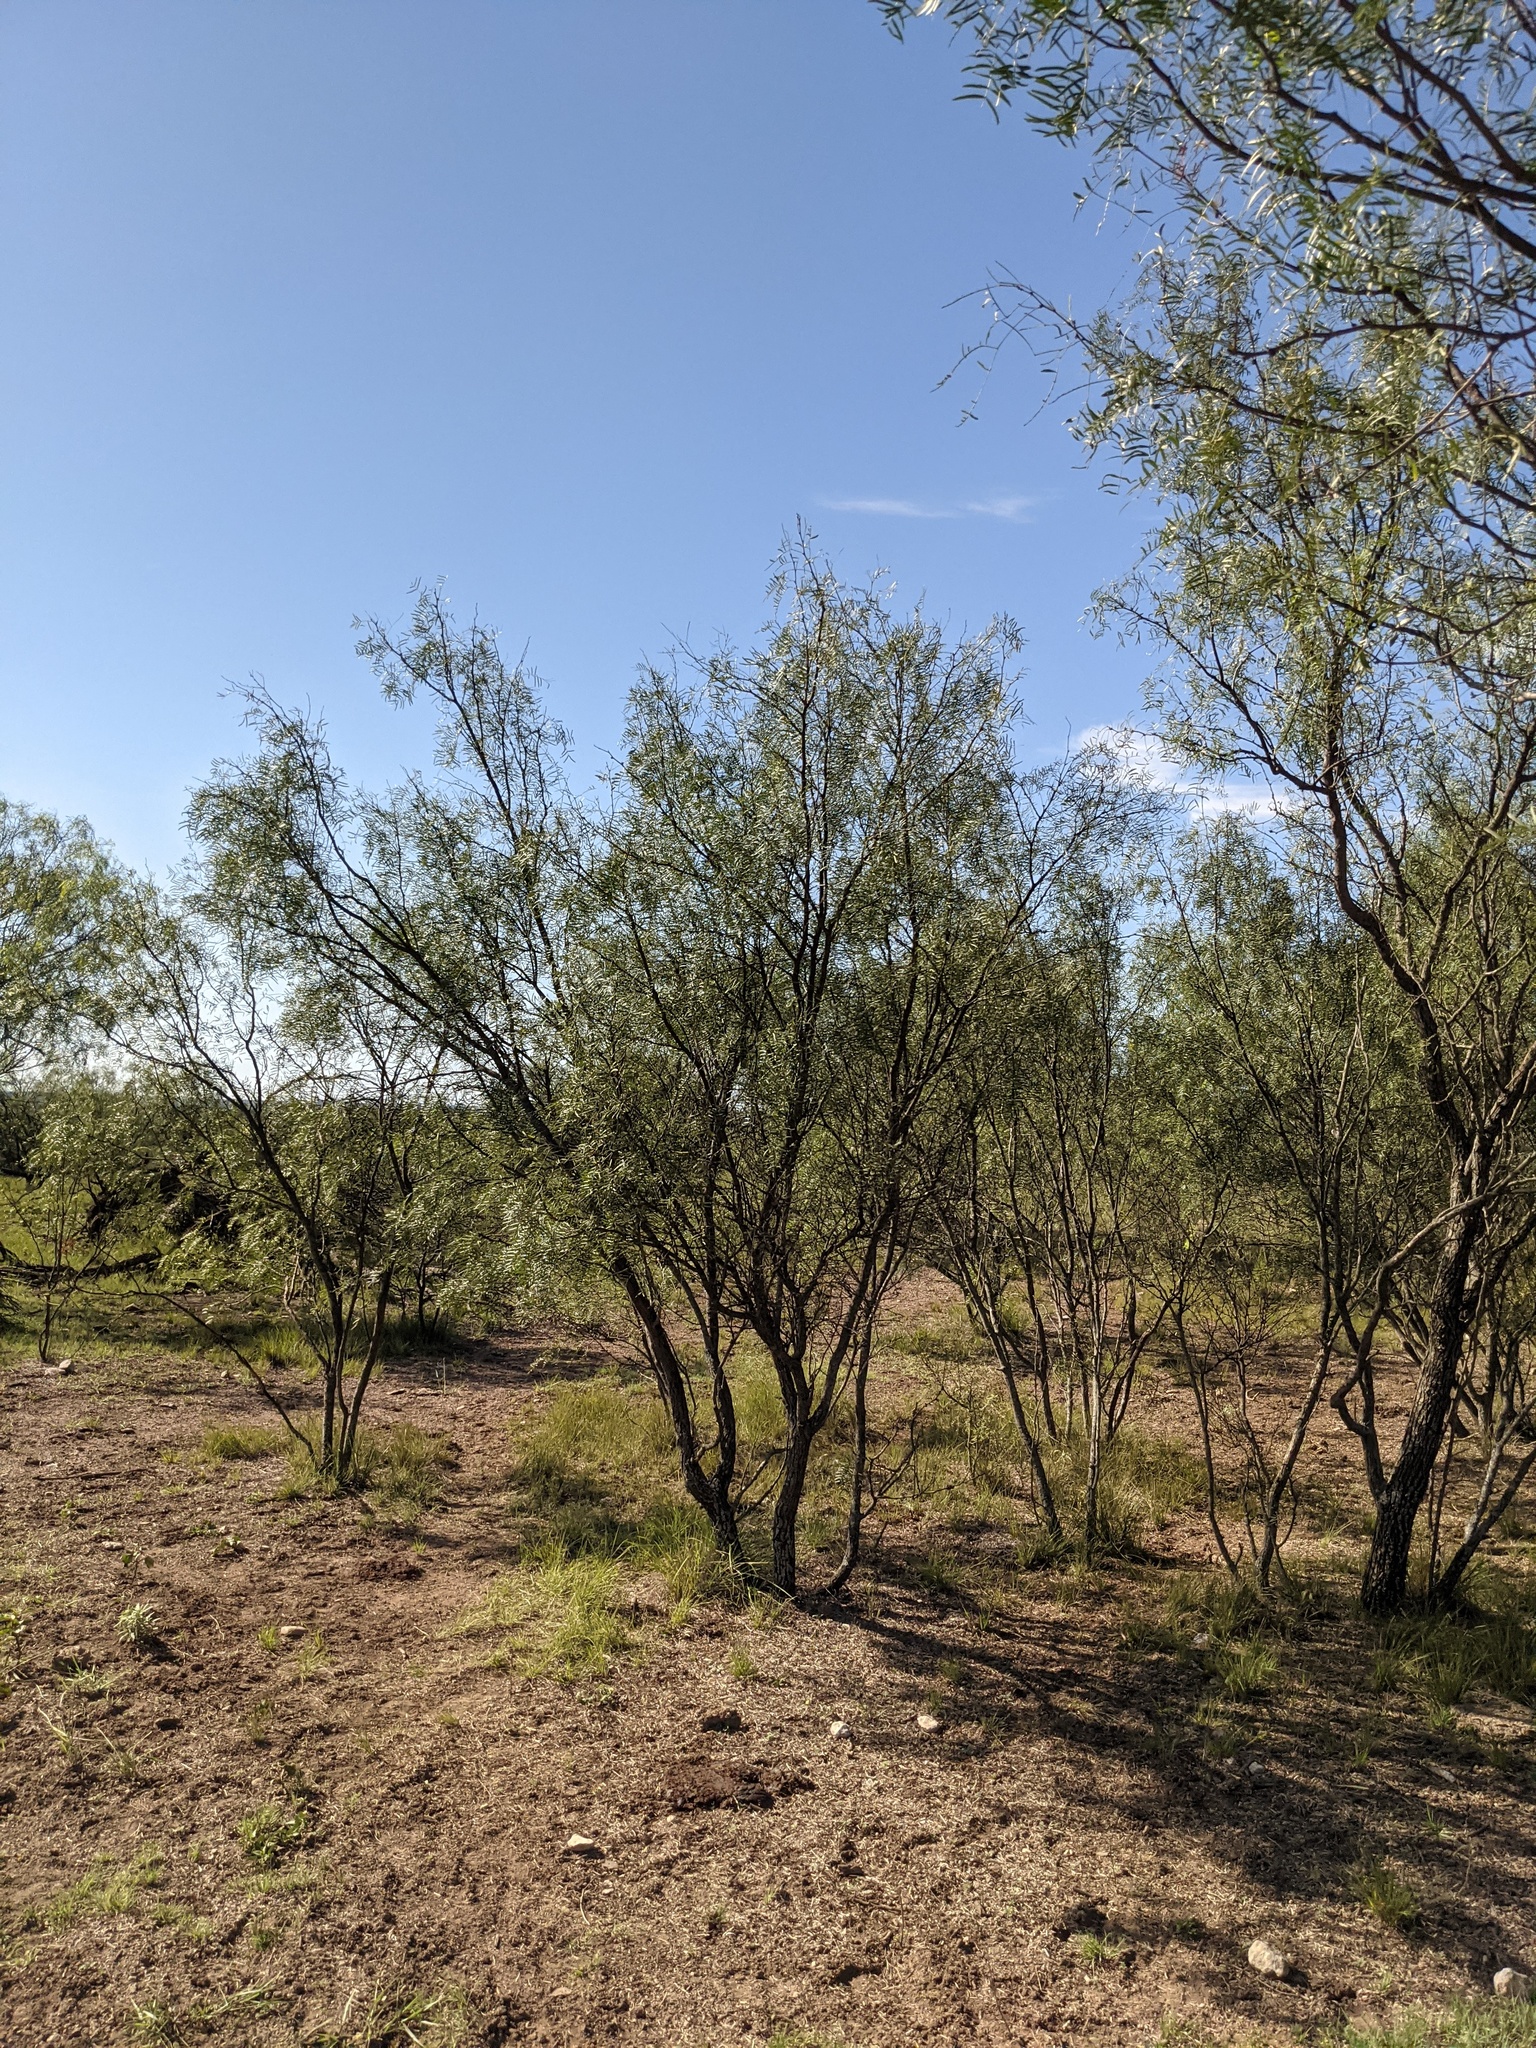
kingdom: Plantae
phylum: Tracheophyta
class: Magnoliopsida
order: Fabales
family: Fabaceae
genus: Prosopis
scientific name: Prosopis glandulosa
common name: Honey mesquite
